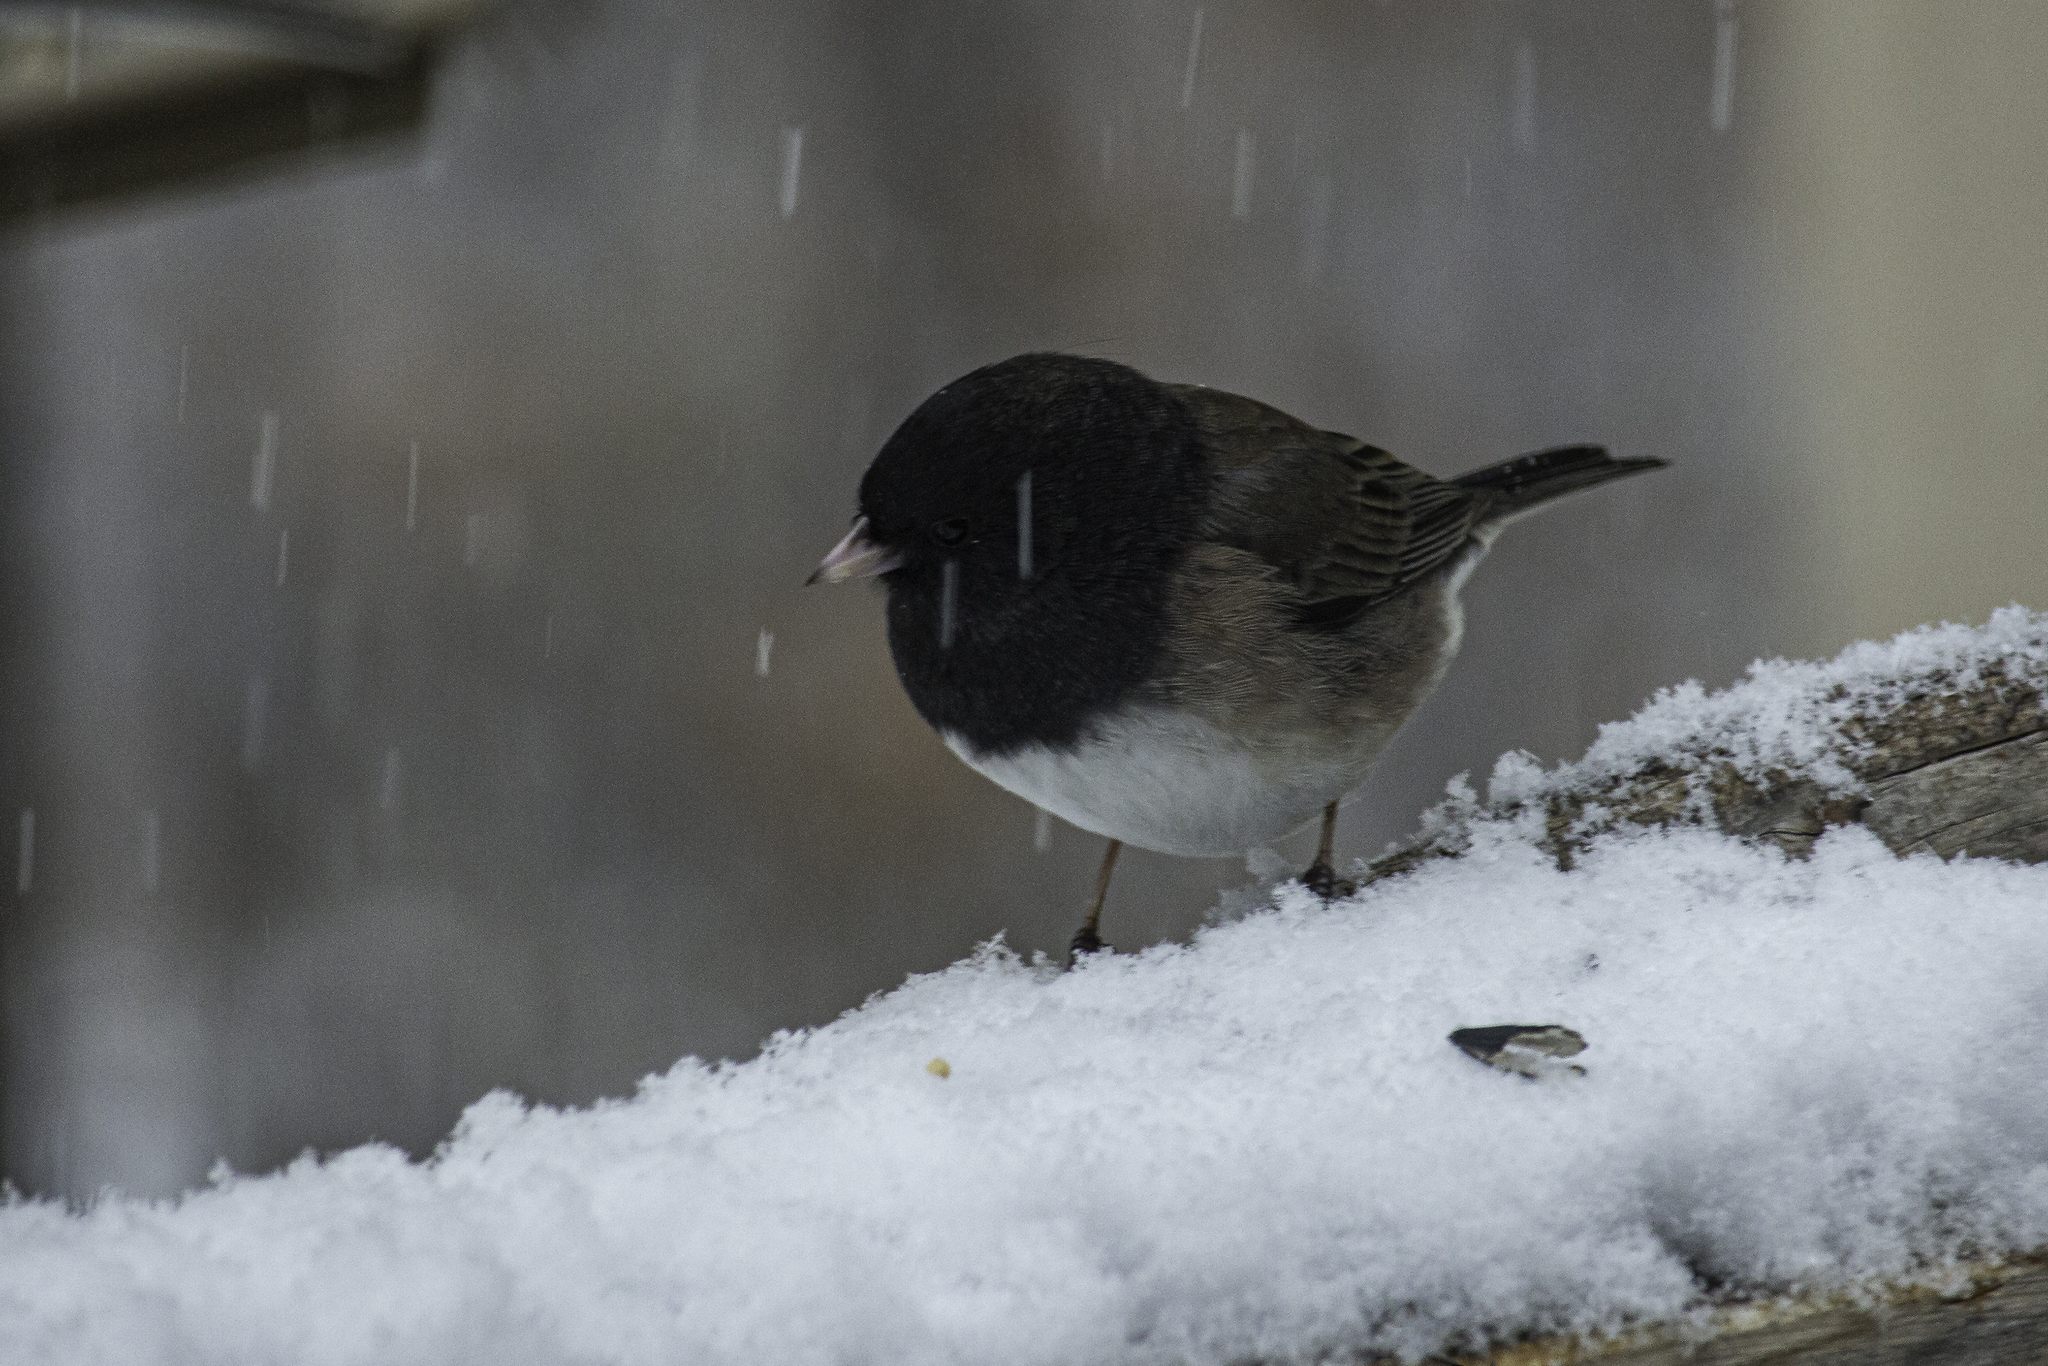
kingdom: Animalia
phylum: Chordata
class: Aves
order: Passeriformes
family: Passerellidae
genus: Junco
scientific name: Junco hyemalis
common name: Dark-eyed junco
